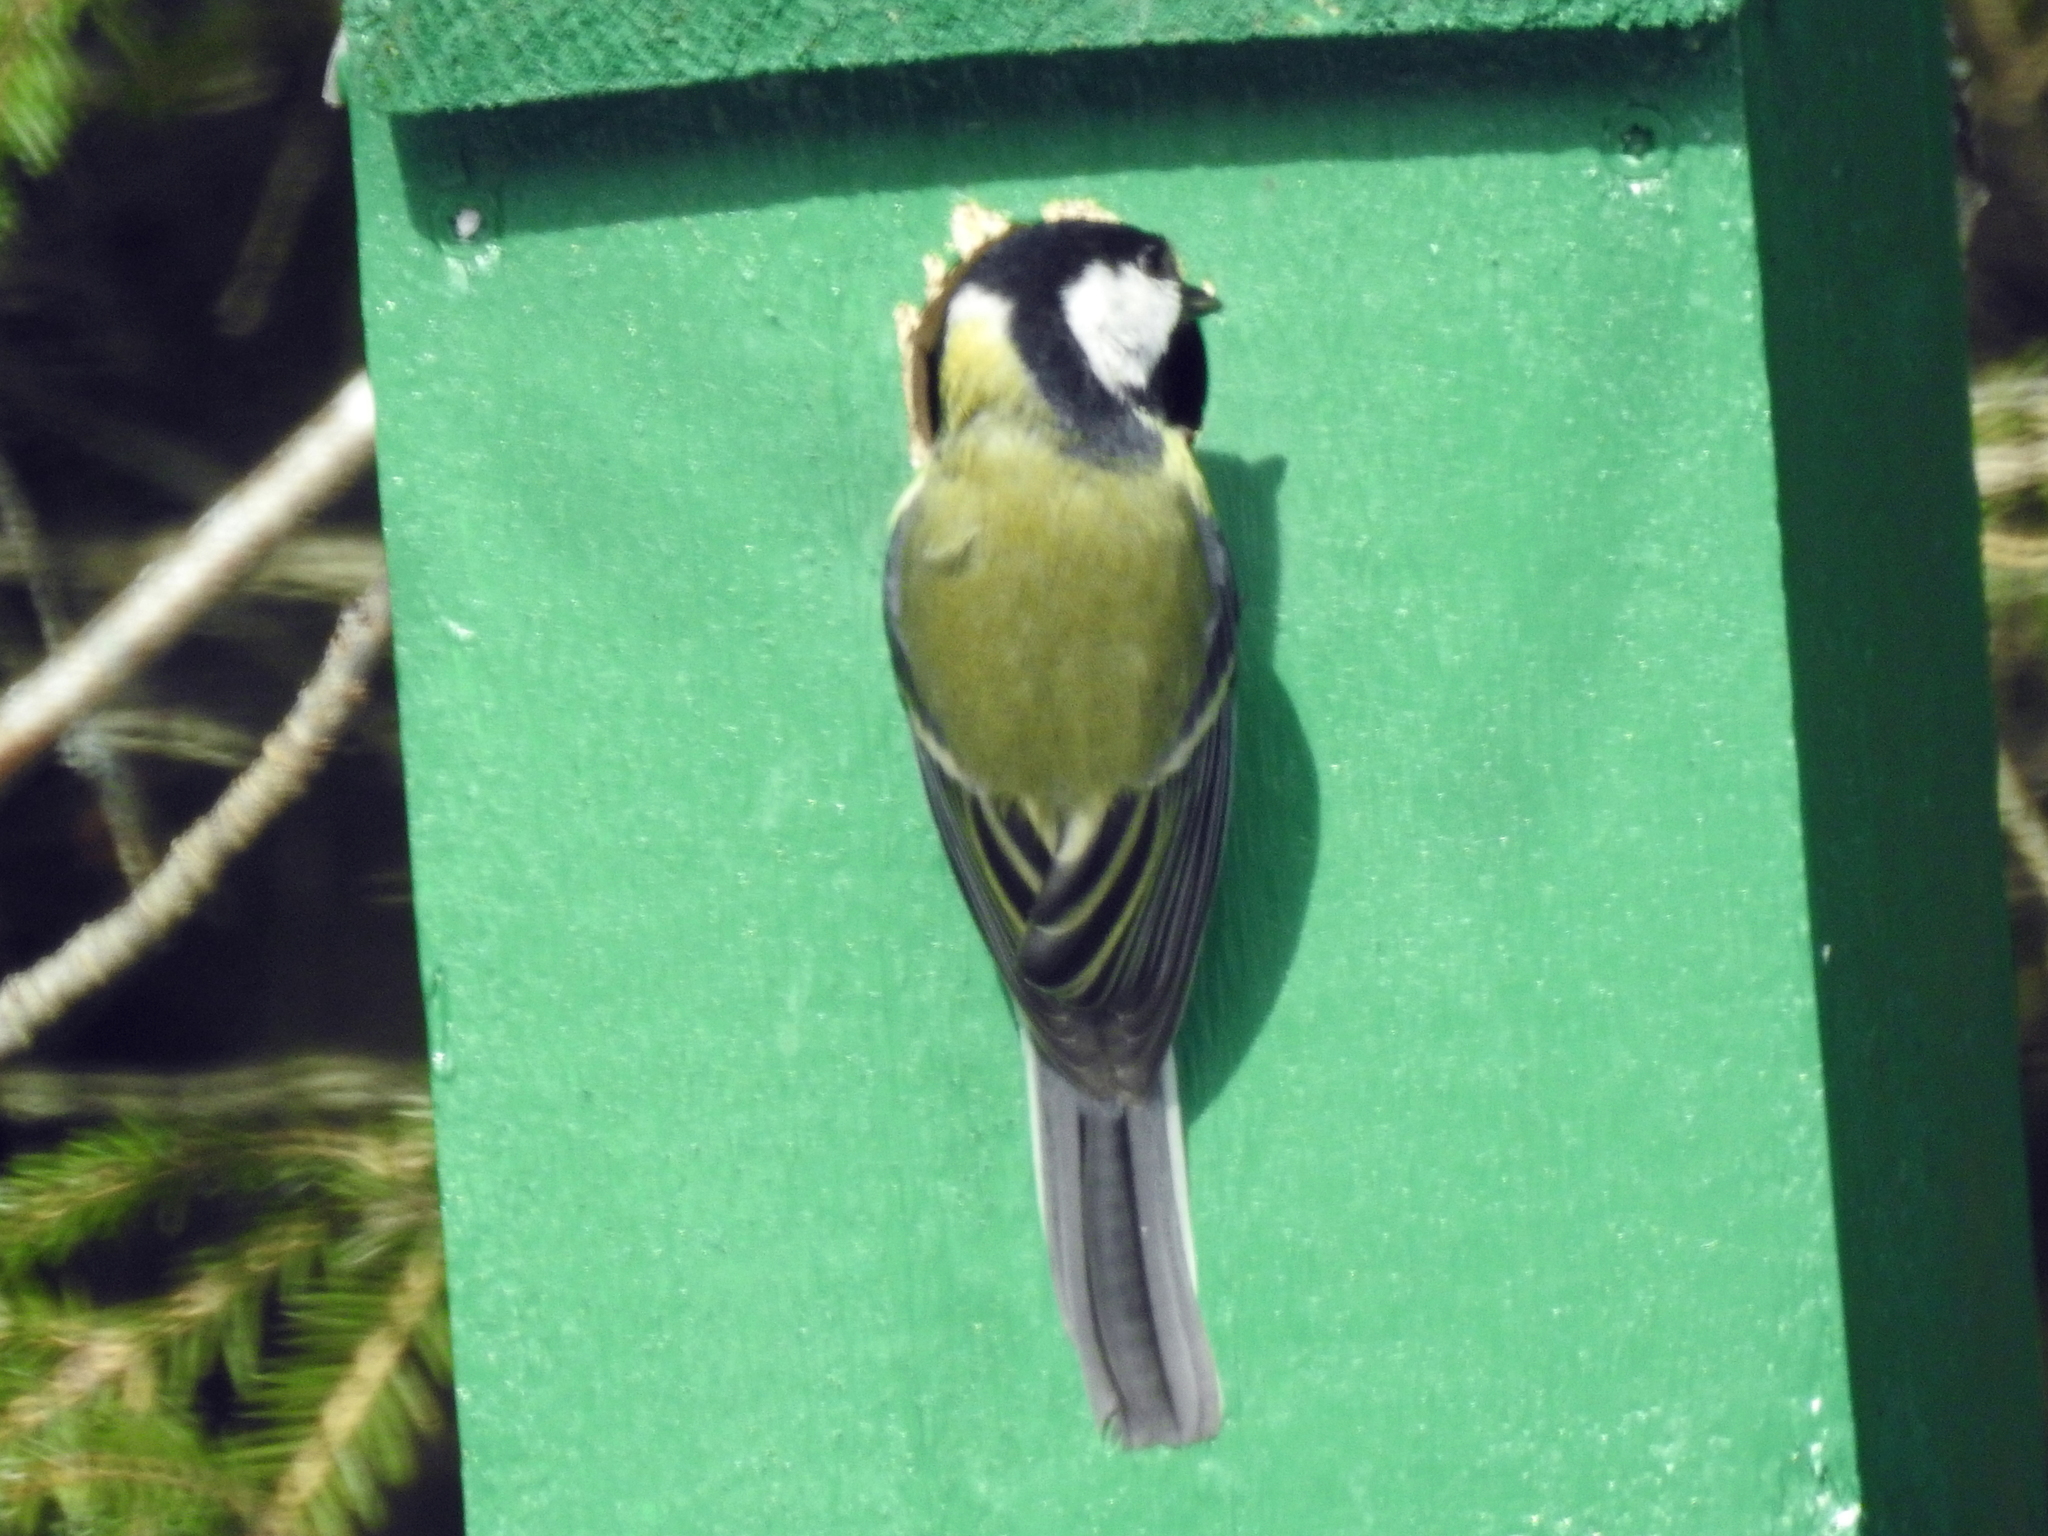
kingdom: Animalia
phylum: Chordata
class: Aves
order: Passeriformes
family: Paridae
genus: Parus
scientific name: Parus major
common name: Great tit
